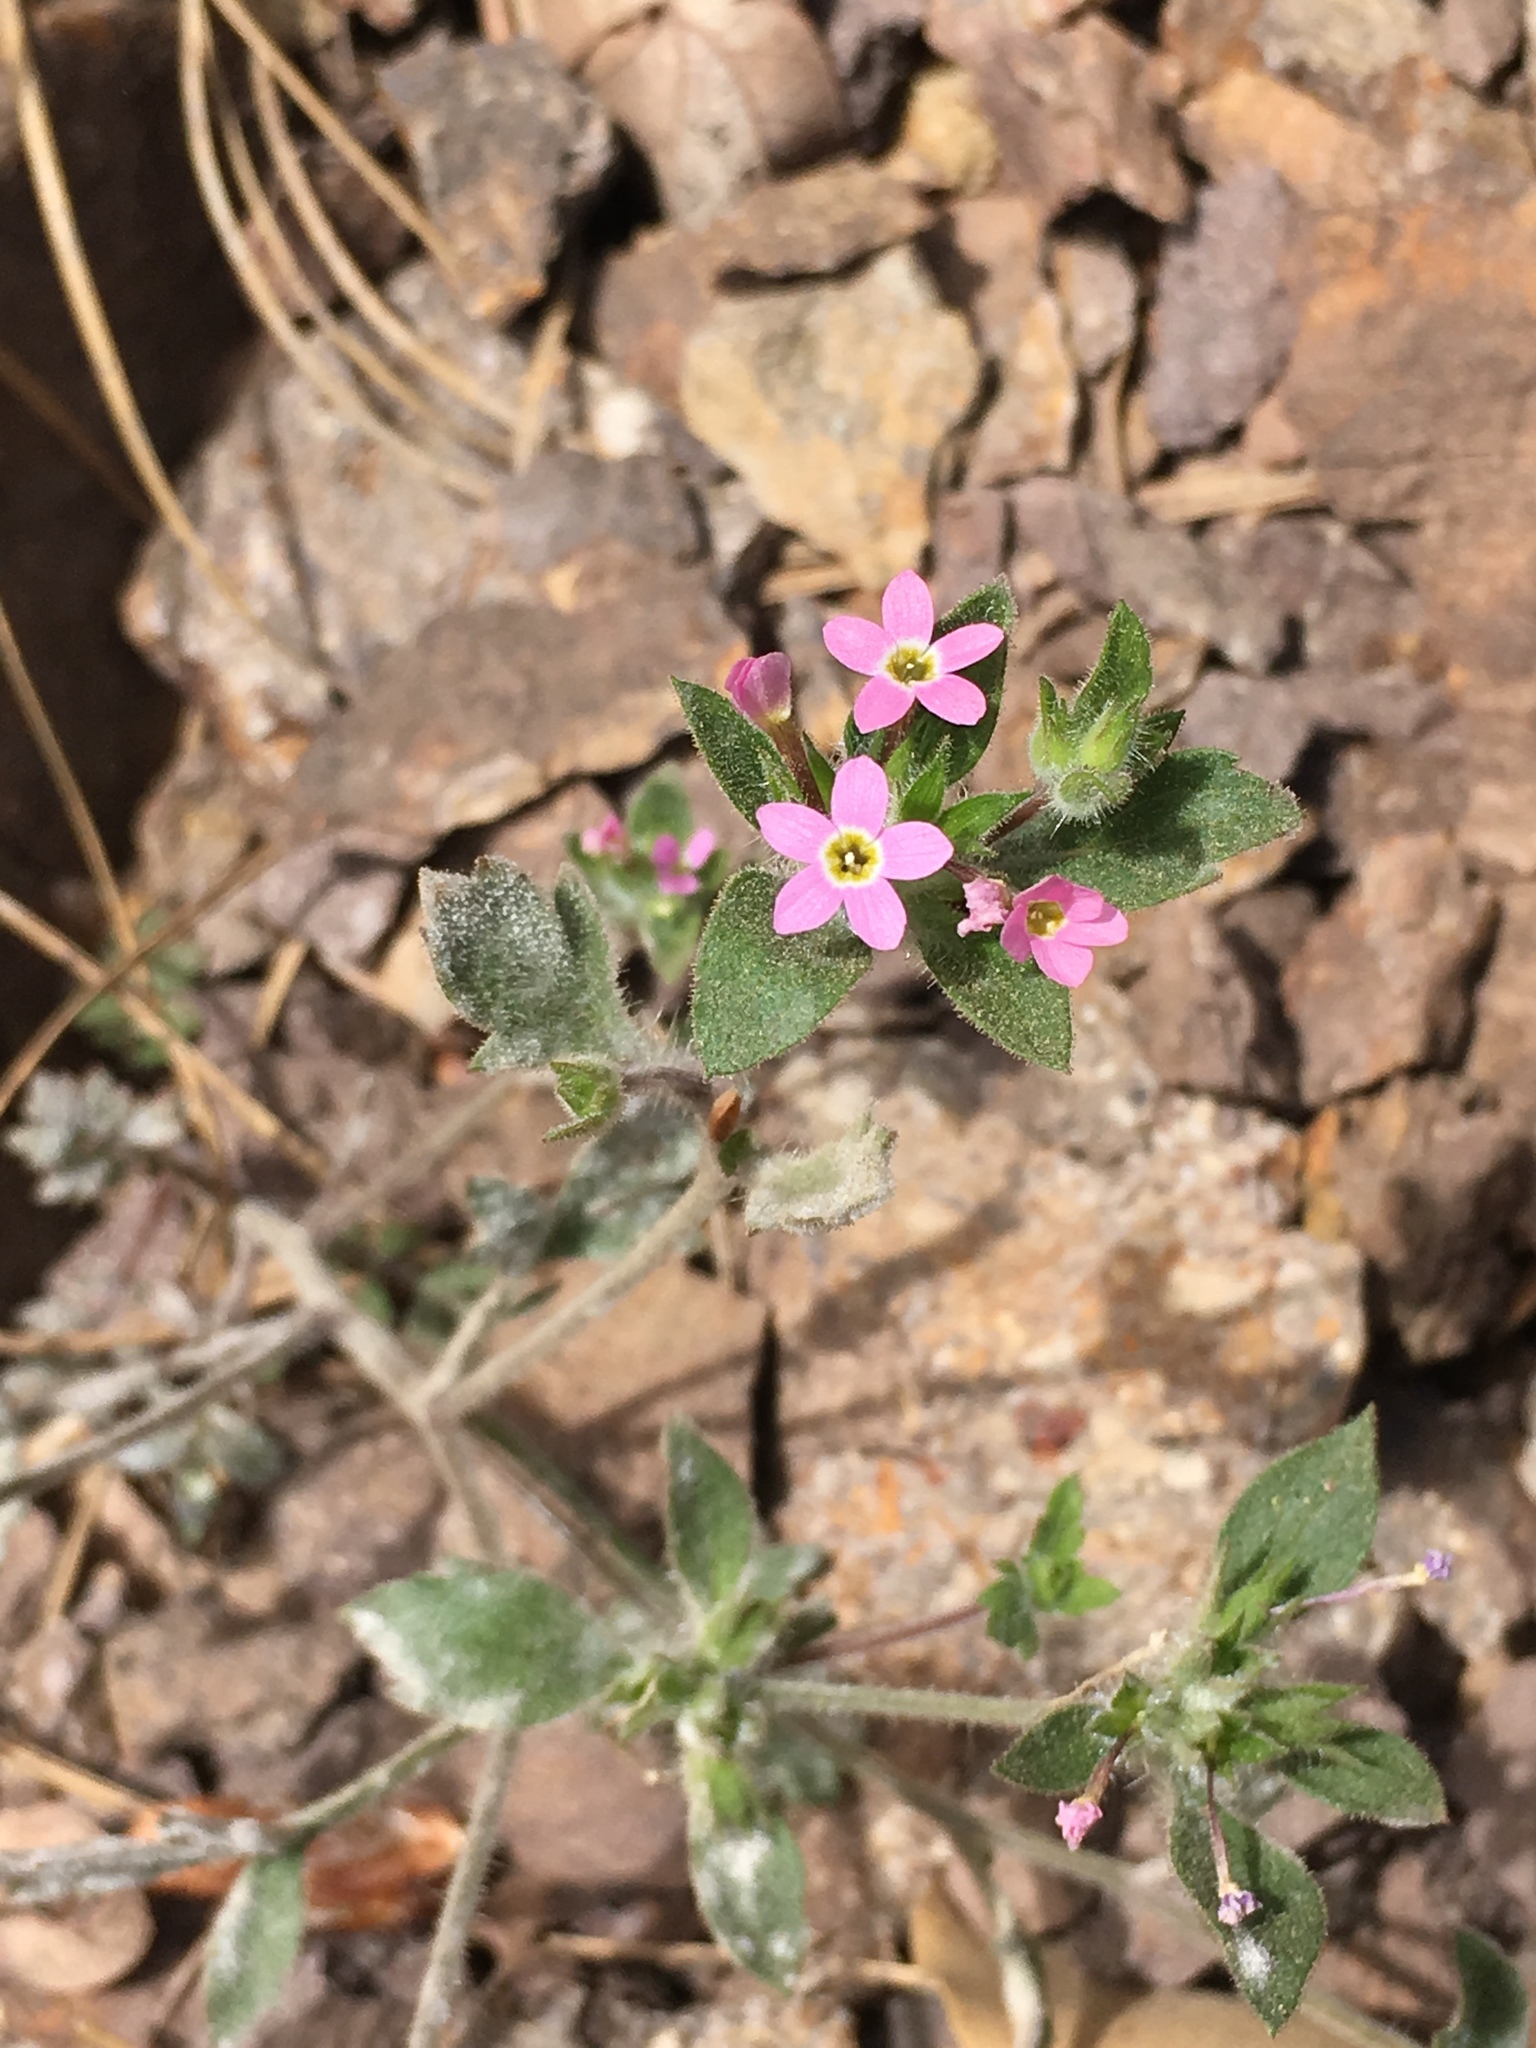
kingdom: Plantae
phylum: Tracheophyta
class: Magnoliopsida
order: Ericales
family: Polemoniaceae
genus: Collomia
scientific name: Collomia heterophylla
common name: Variable-leaved collomia
